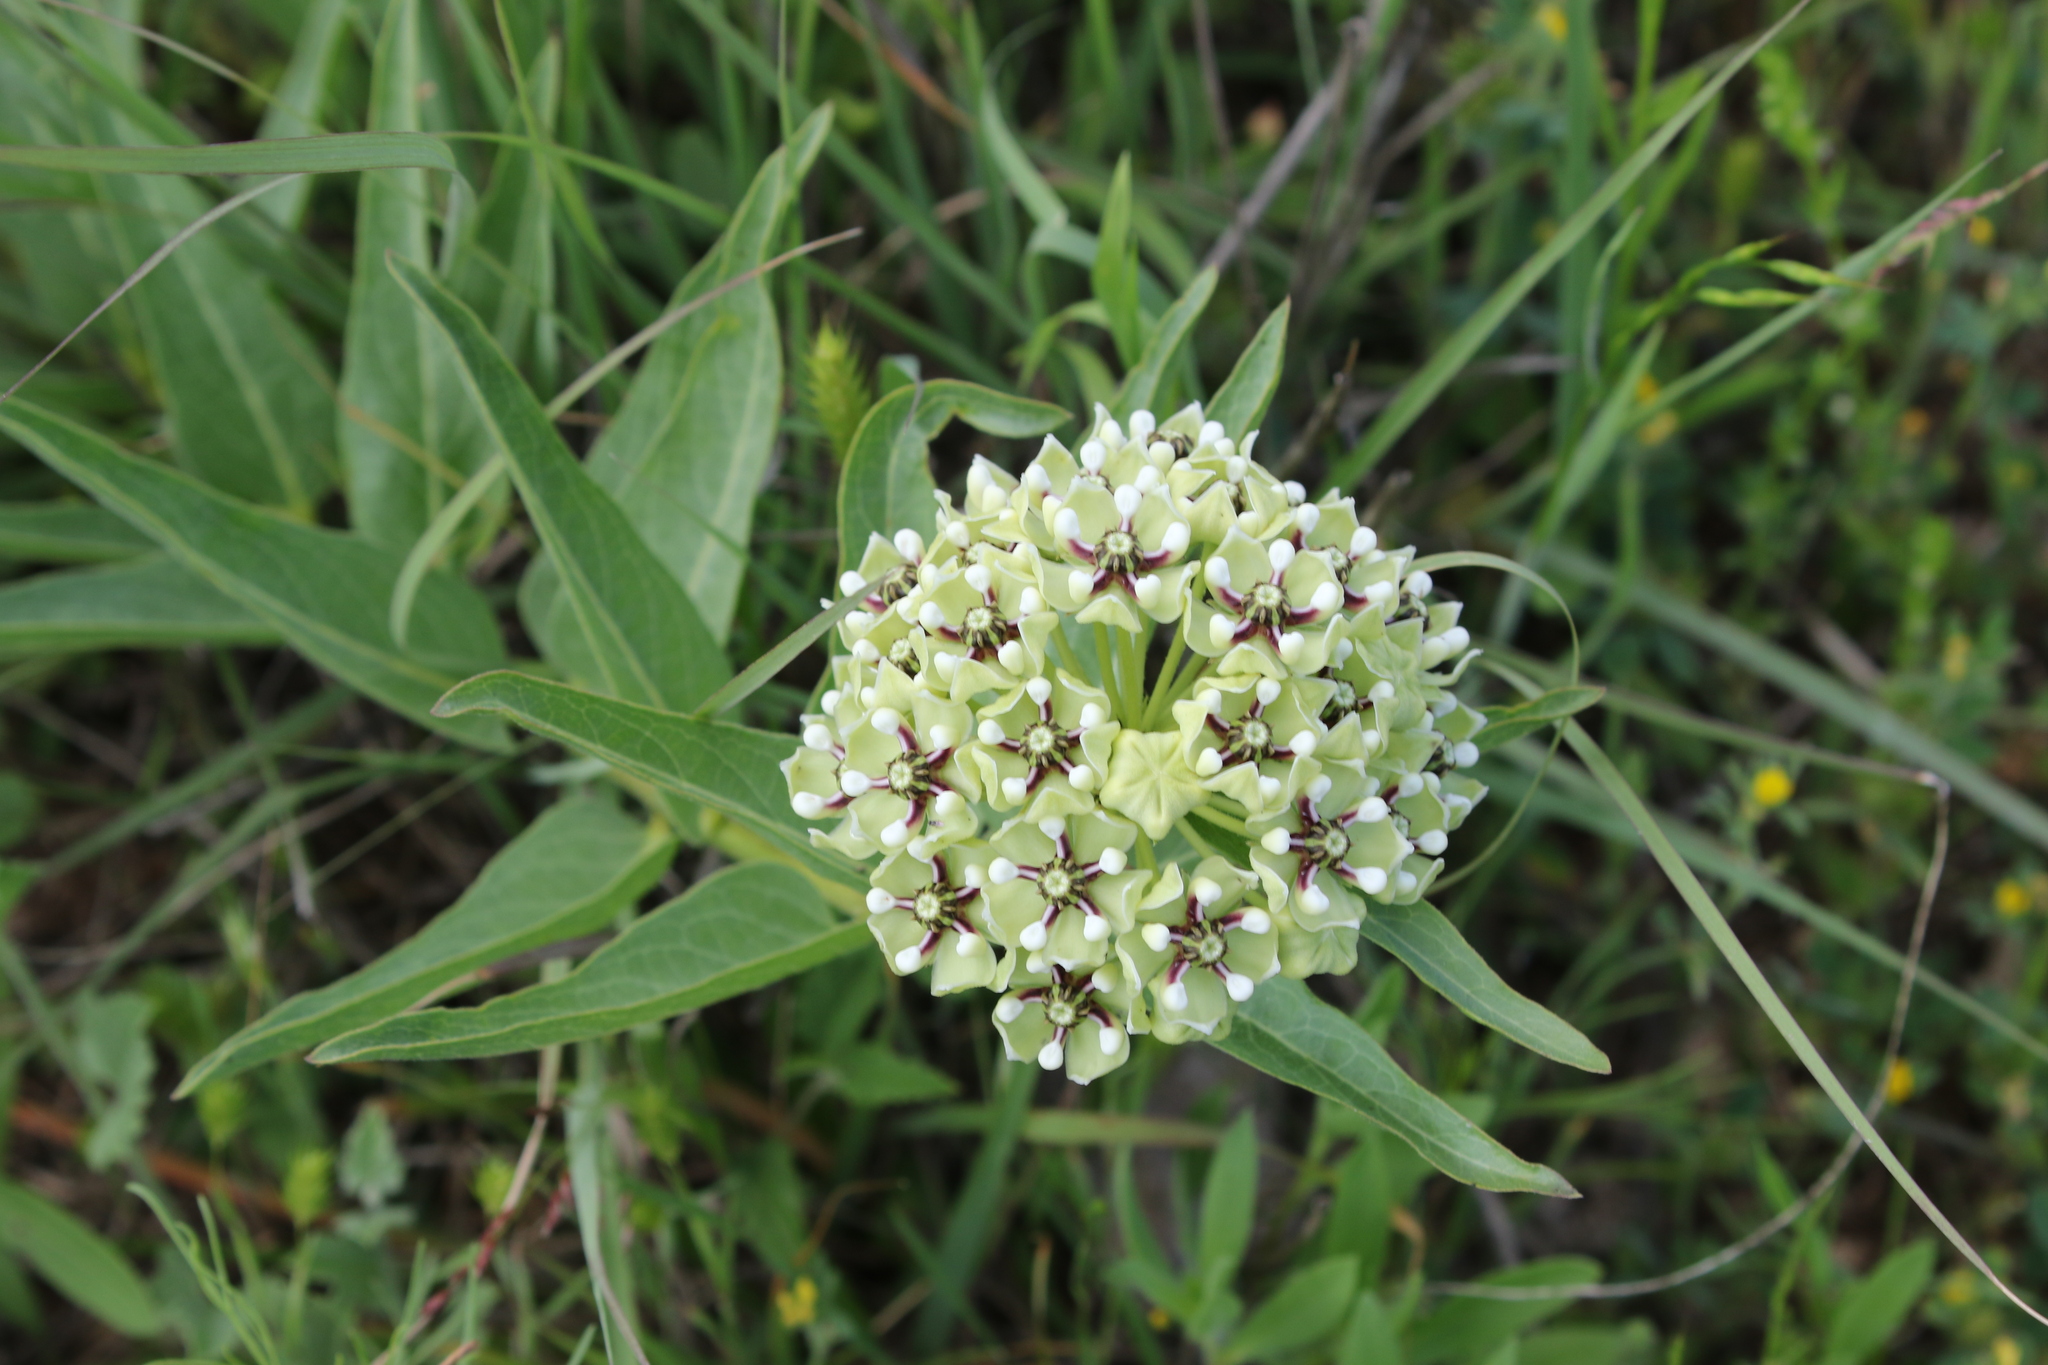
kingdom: Plantae
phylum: Tracheophyta
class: Magnoliopsida
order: Gentianales
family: Apocynaceae
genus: Asclepias
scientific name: Asclepias asperula
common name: Antelope horns
